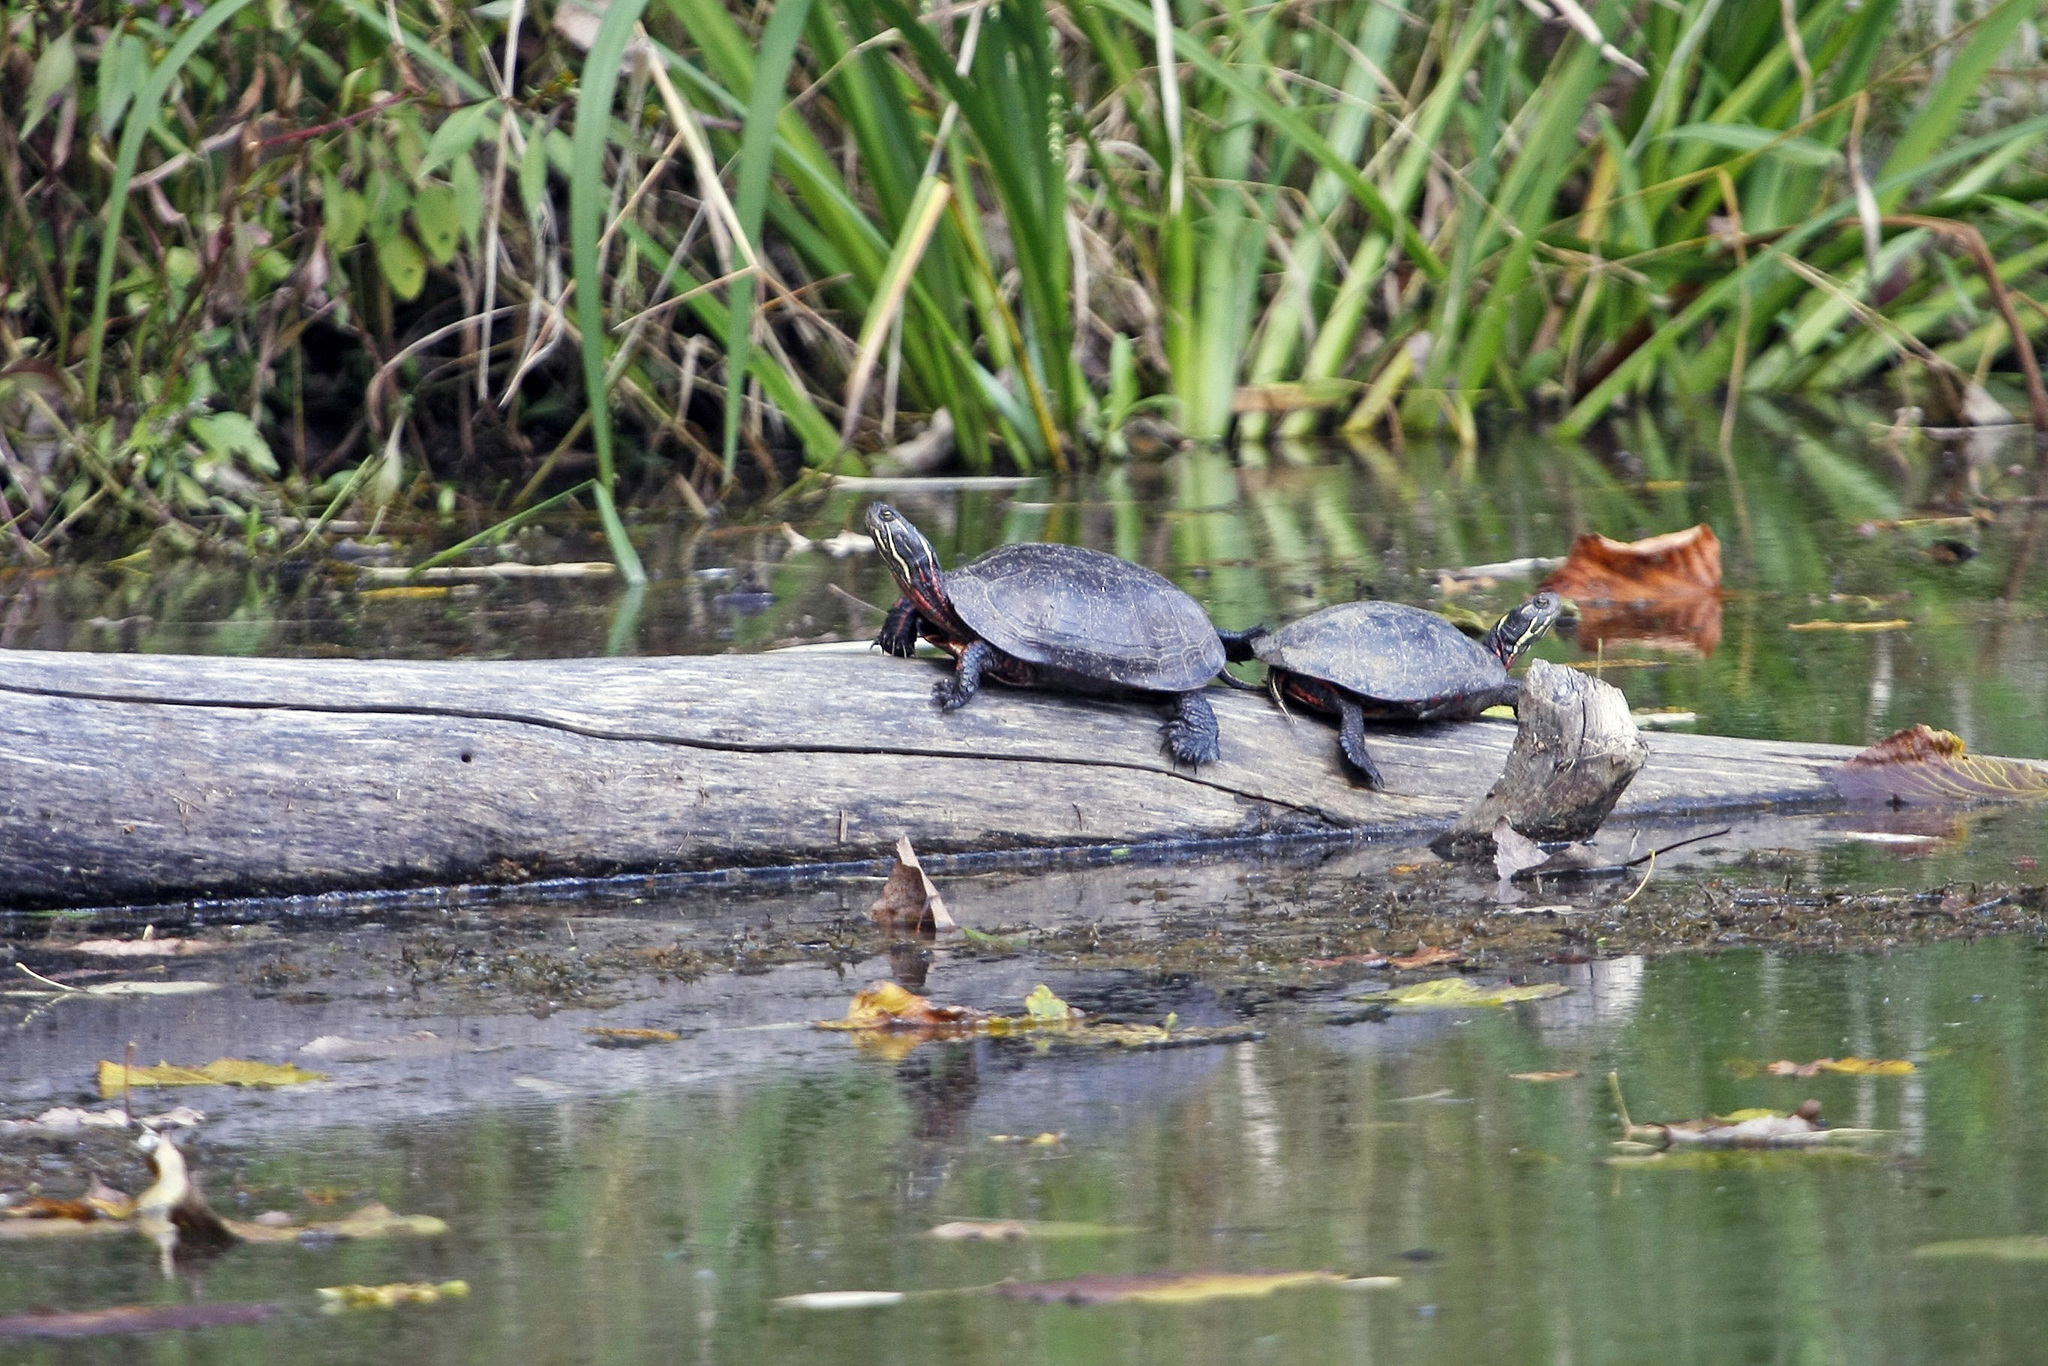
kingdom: Animalia
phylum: Chordata
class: Testudines
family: Emydidae
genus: Chrysemys
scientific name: Chrysemys picta
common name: Painted turtle
